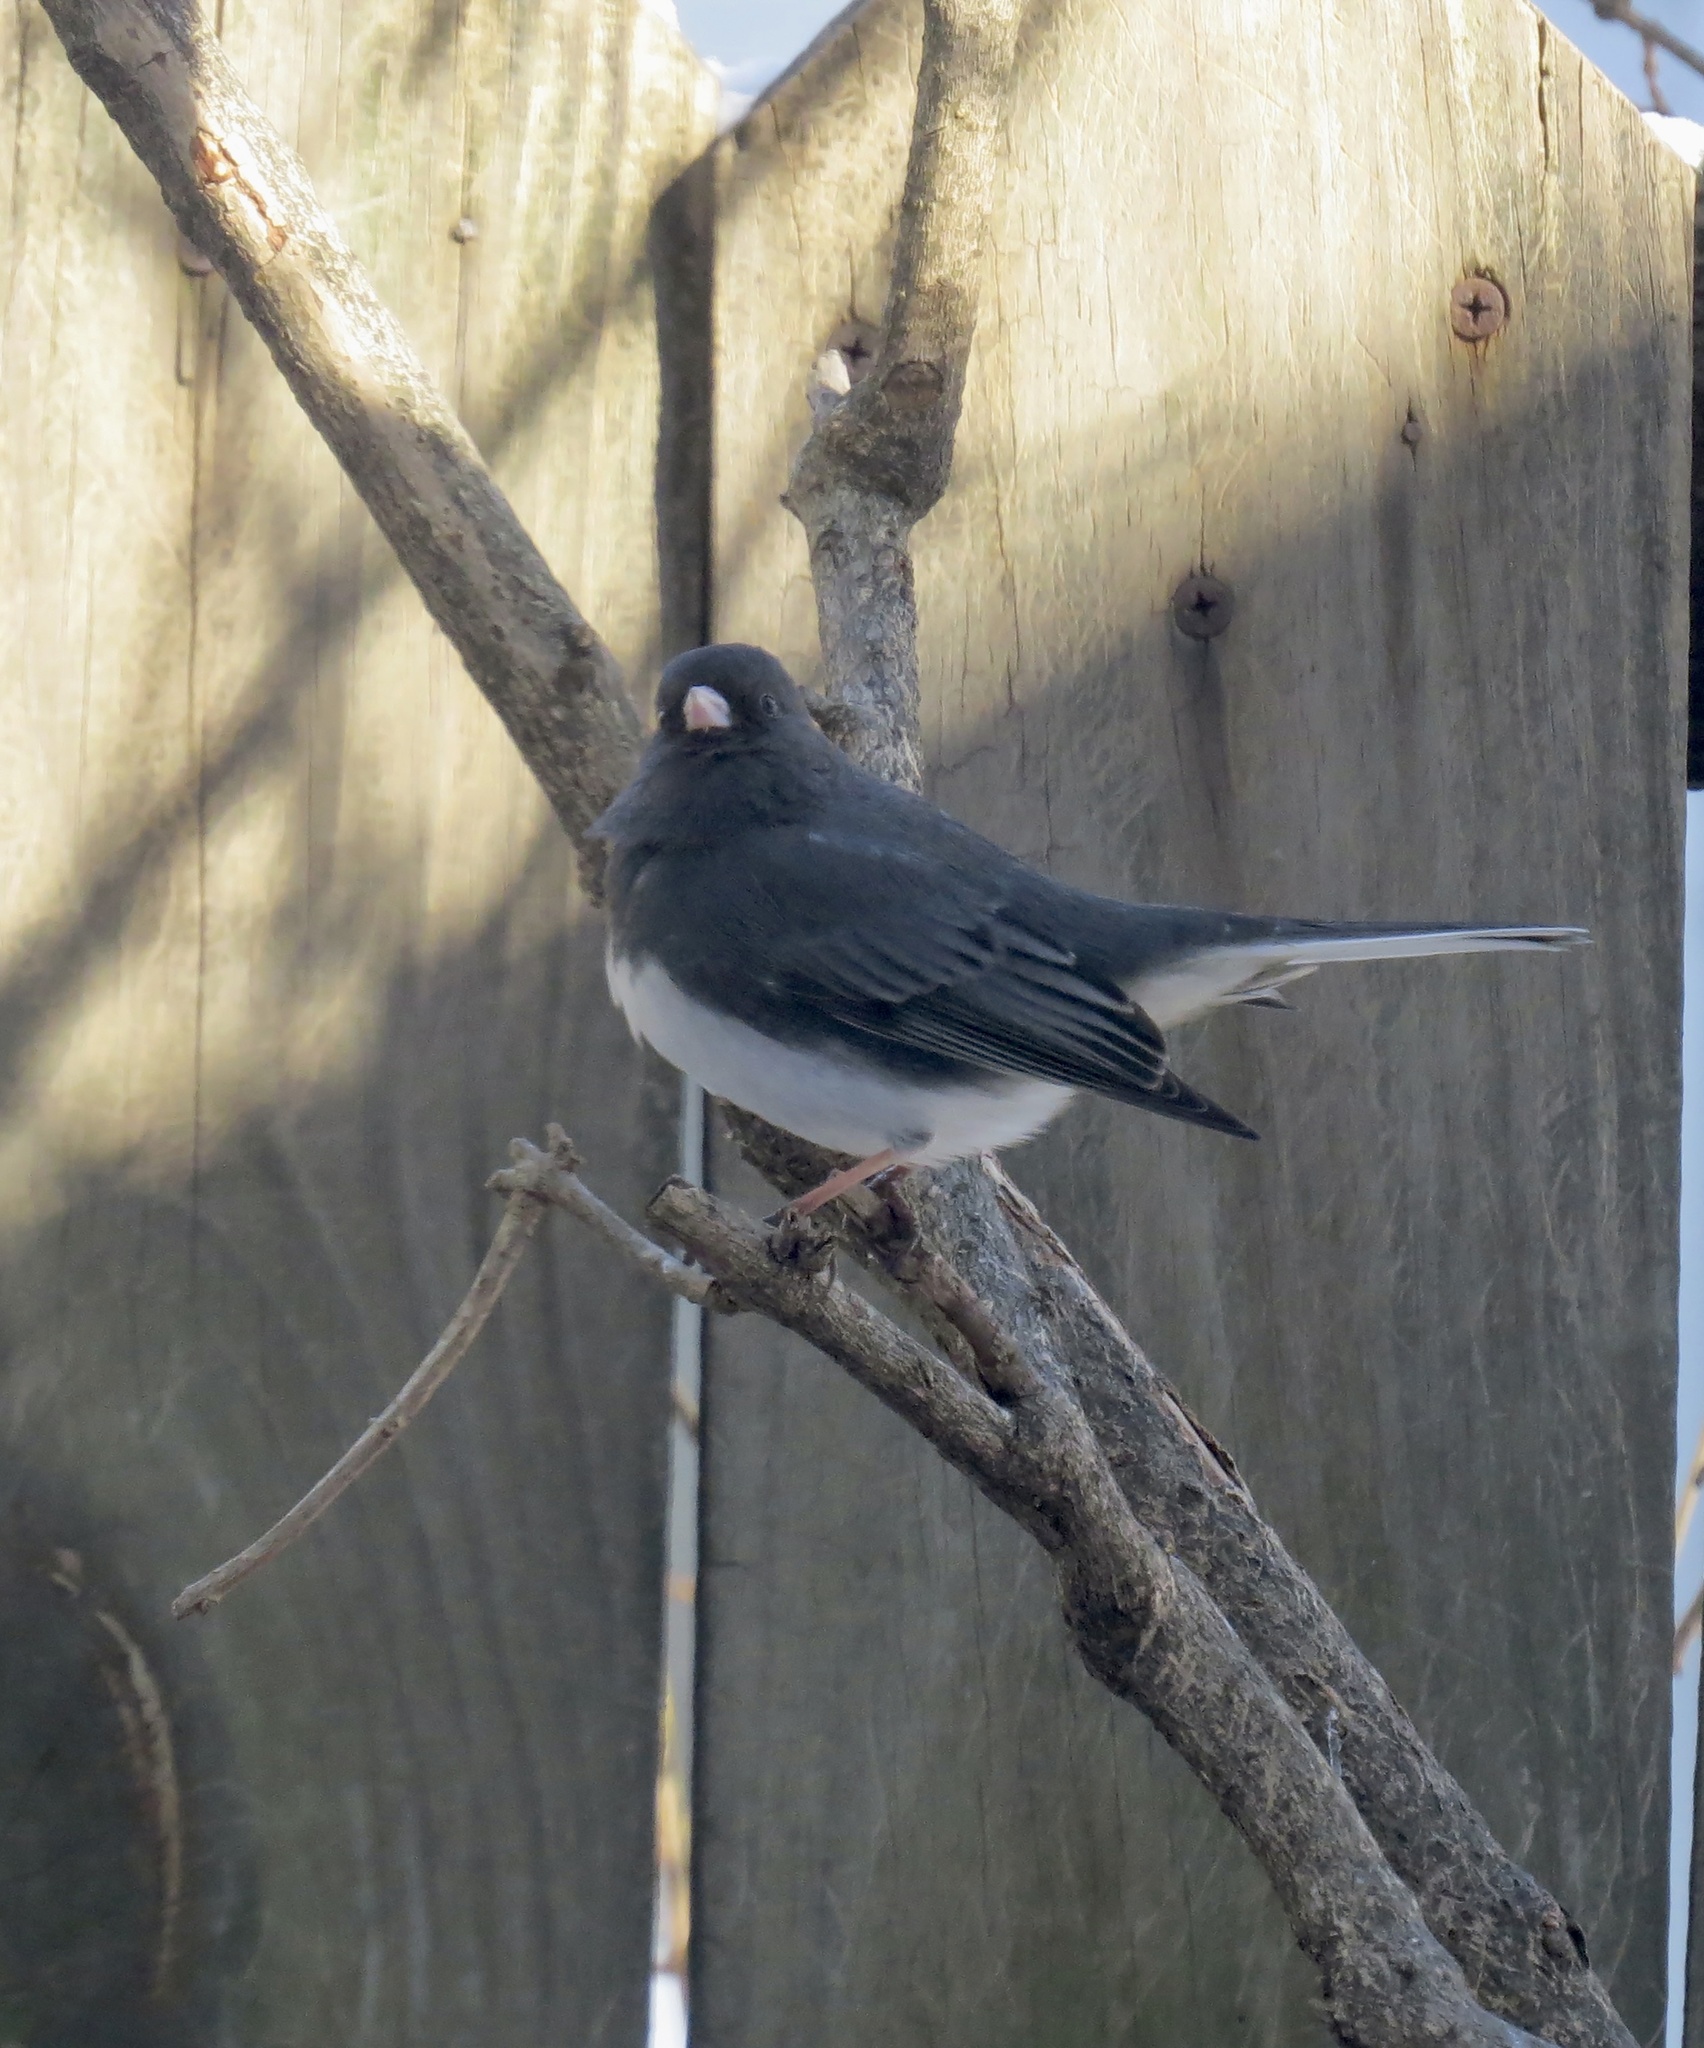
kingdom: Animalia
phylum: Chordata
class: Aves
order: Passeriformes
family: Passerellidae
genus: Junco
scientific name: Junco hyemalis
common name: Dark-eyed junco
